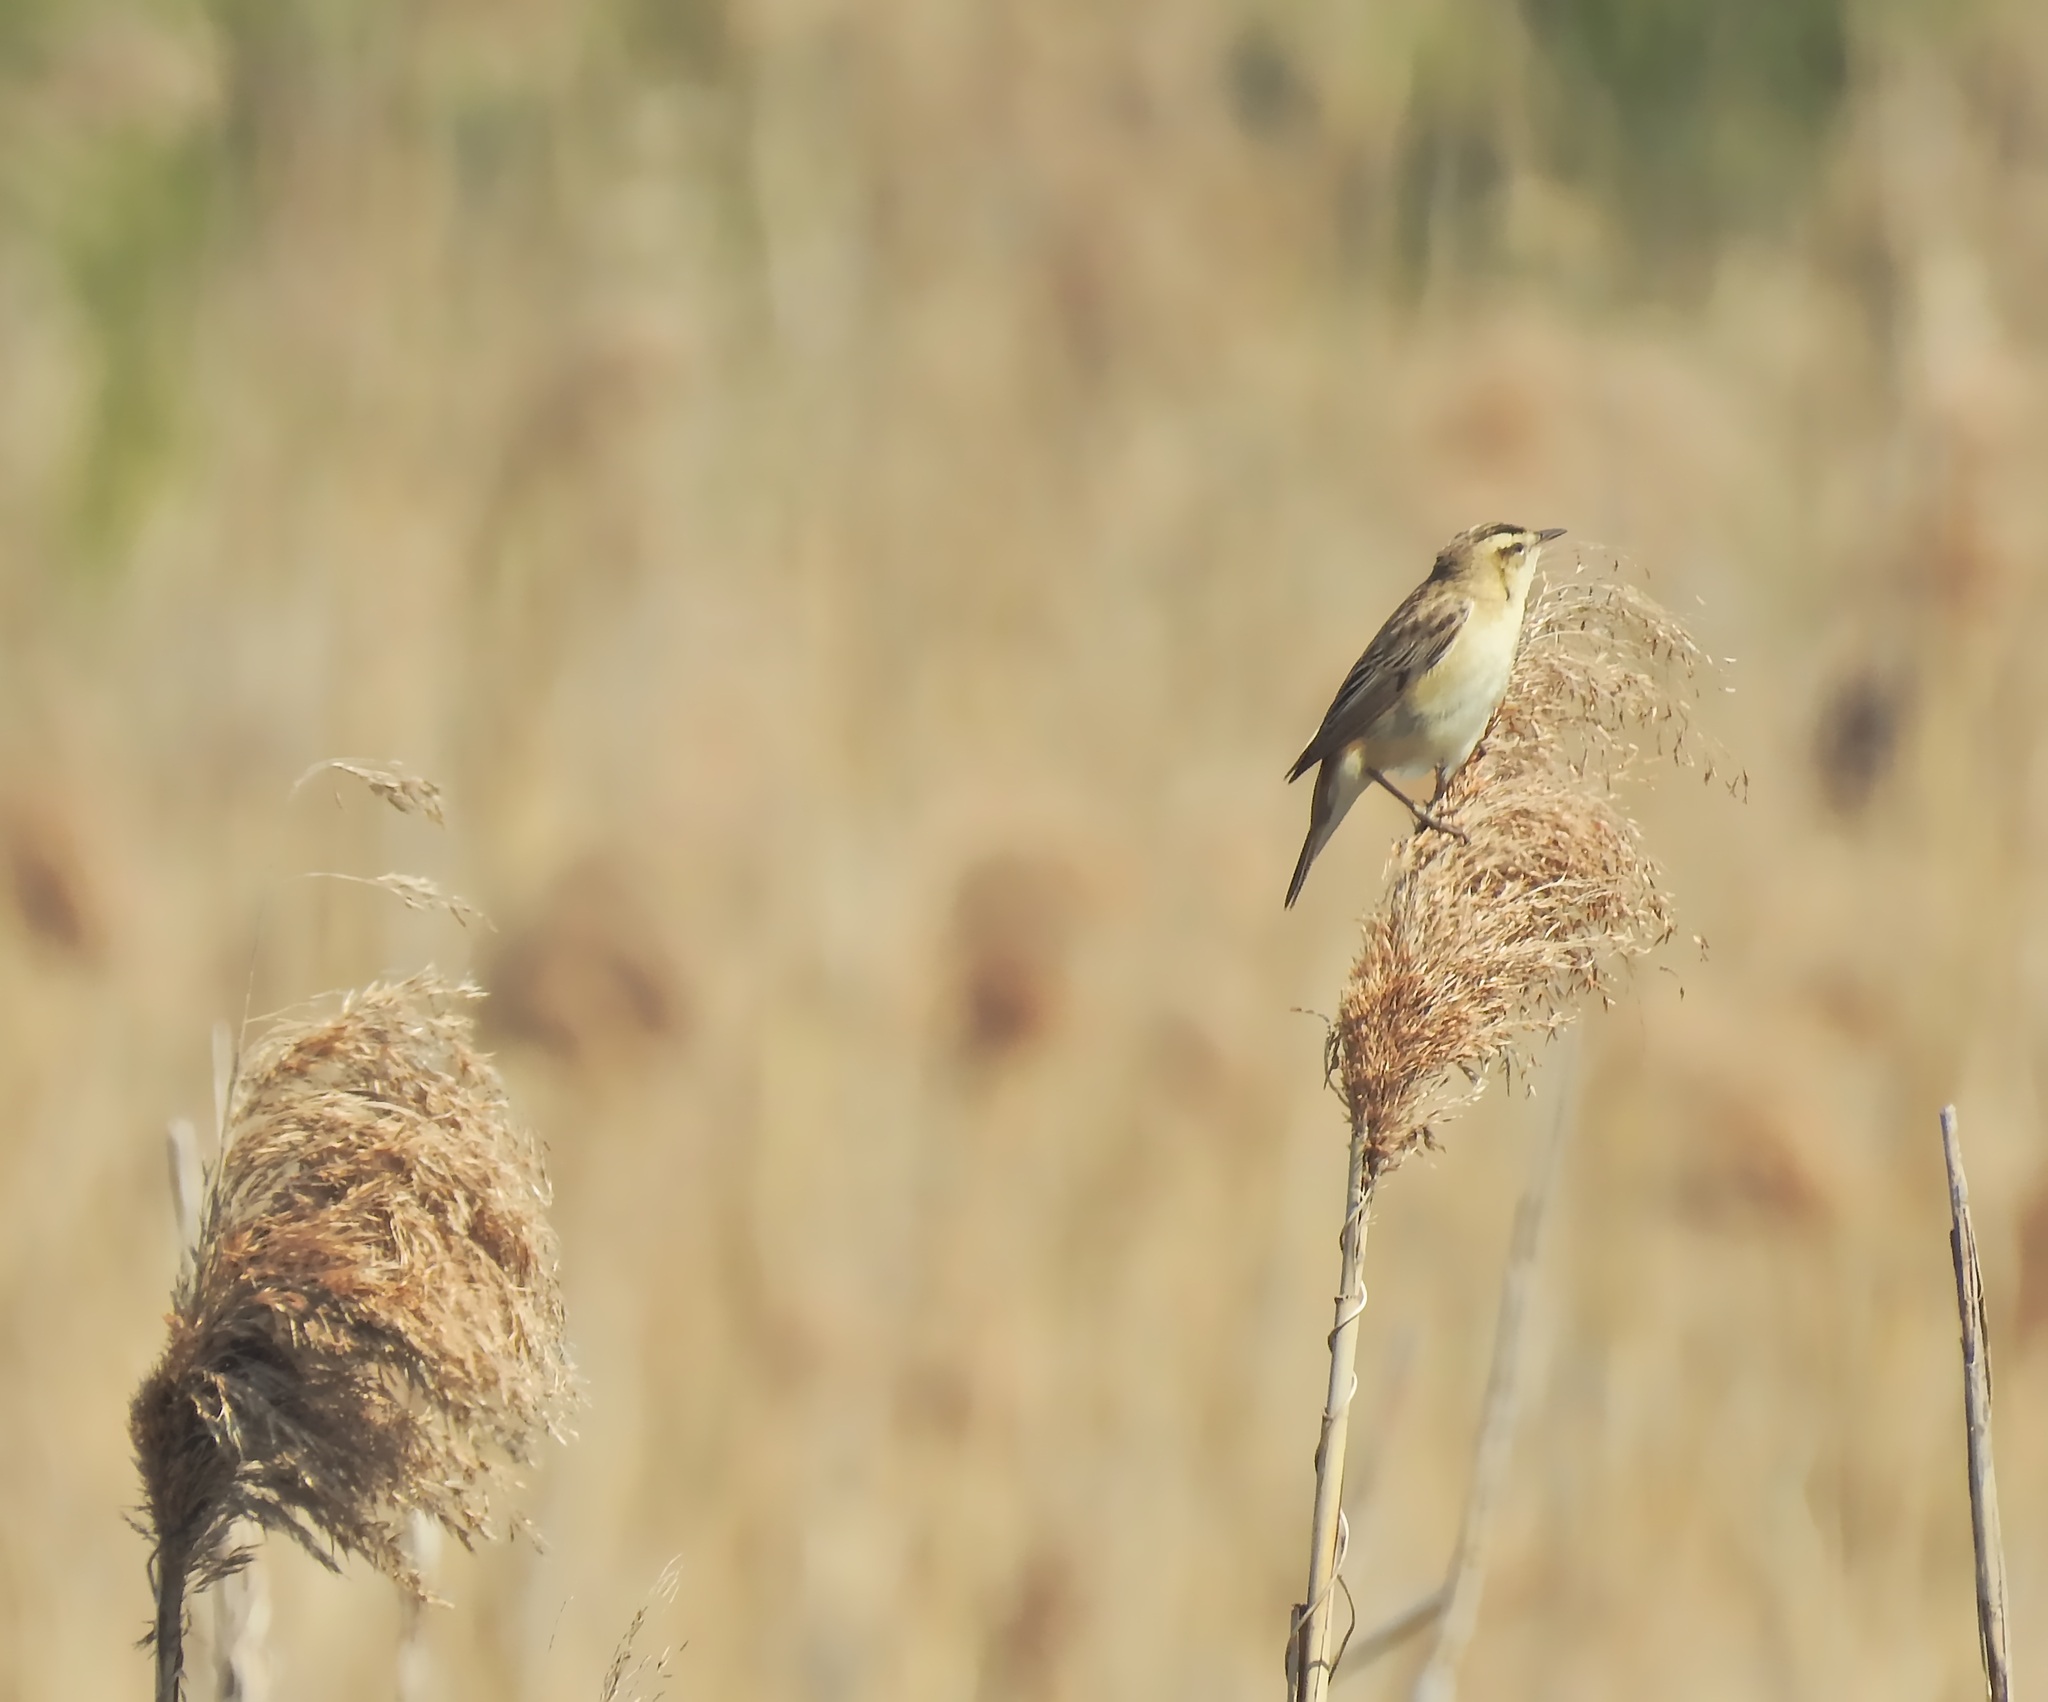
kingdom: Animalia
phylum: Chordata
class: Aves
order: Passeriformes
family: Acrocephalidae
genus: Acrocephalus
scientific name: Acrocephalus schoenobaenus
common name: Sedge warbler
